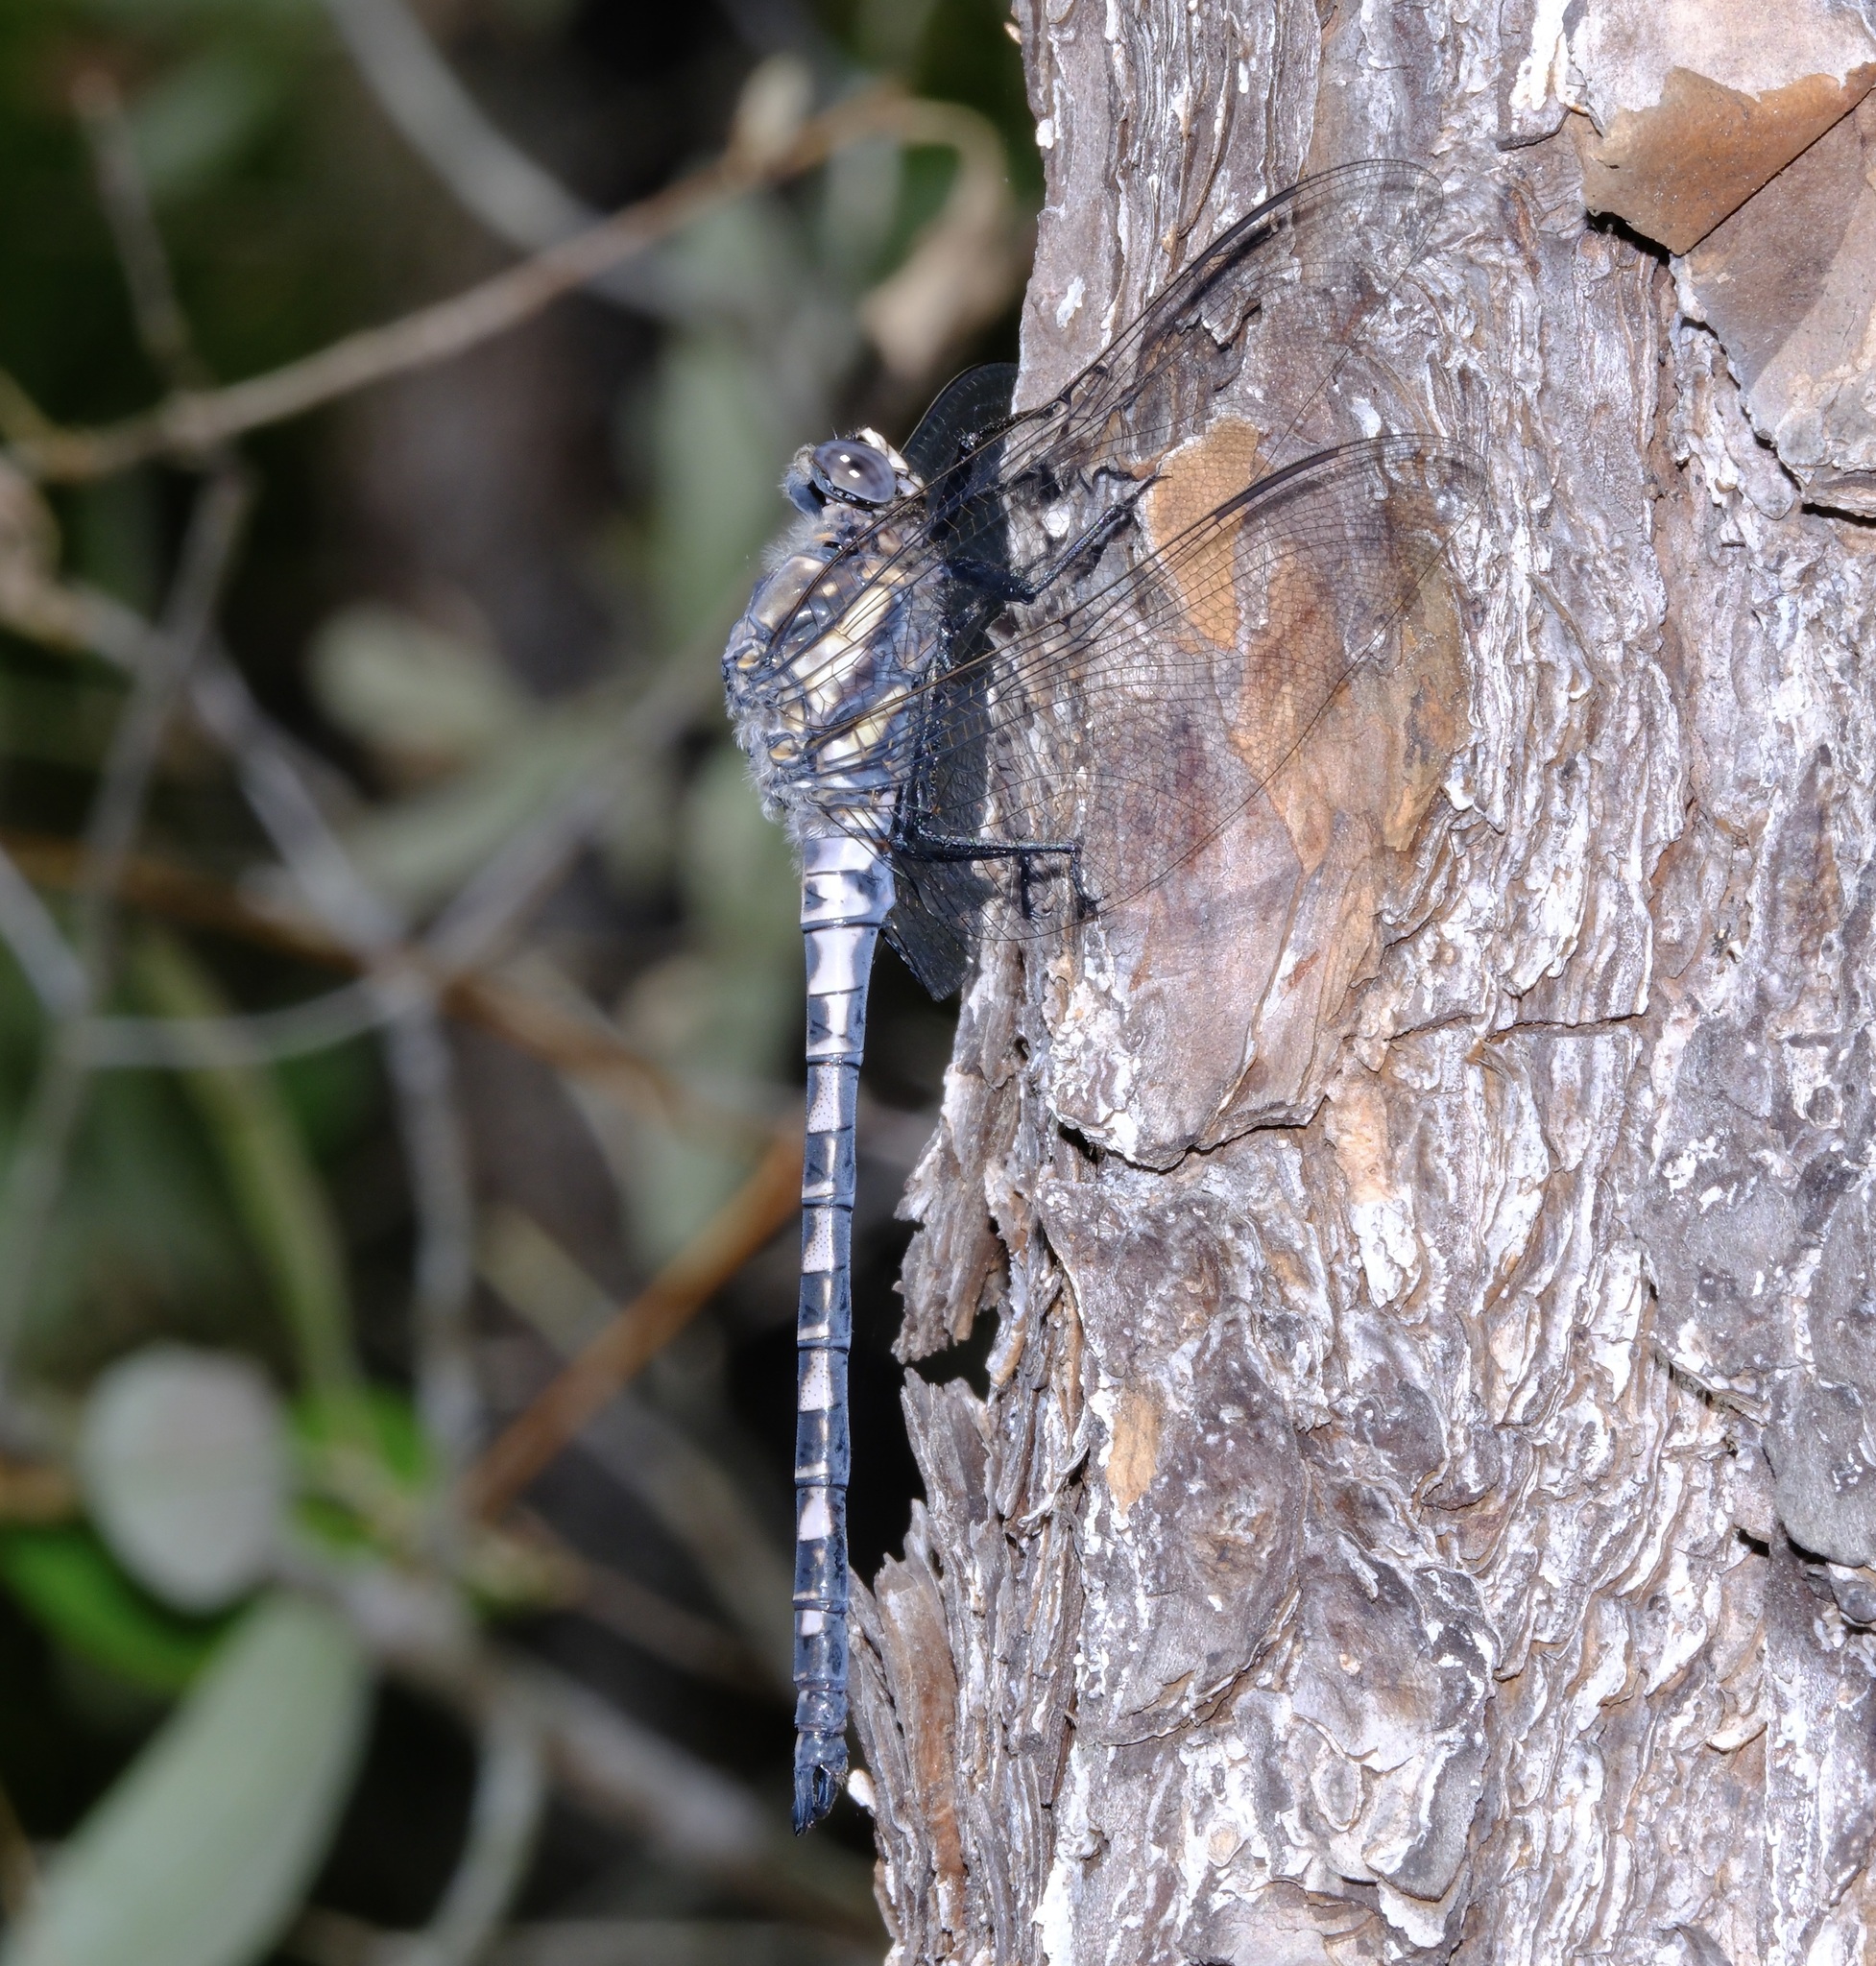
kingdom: Animalia
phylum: Arthropoda
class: Insecta
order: Odonata
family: Petaluridae
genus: Tachopteryx
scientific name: Tachopteryx thoreyi
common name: Gray petaltail
